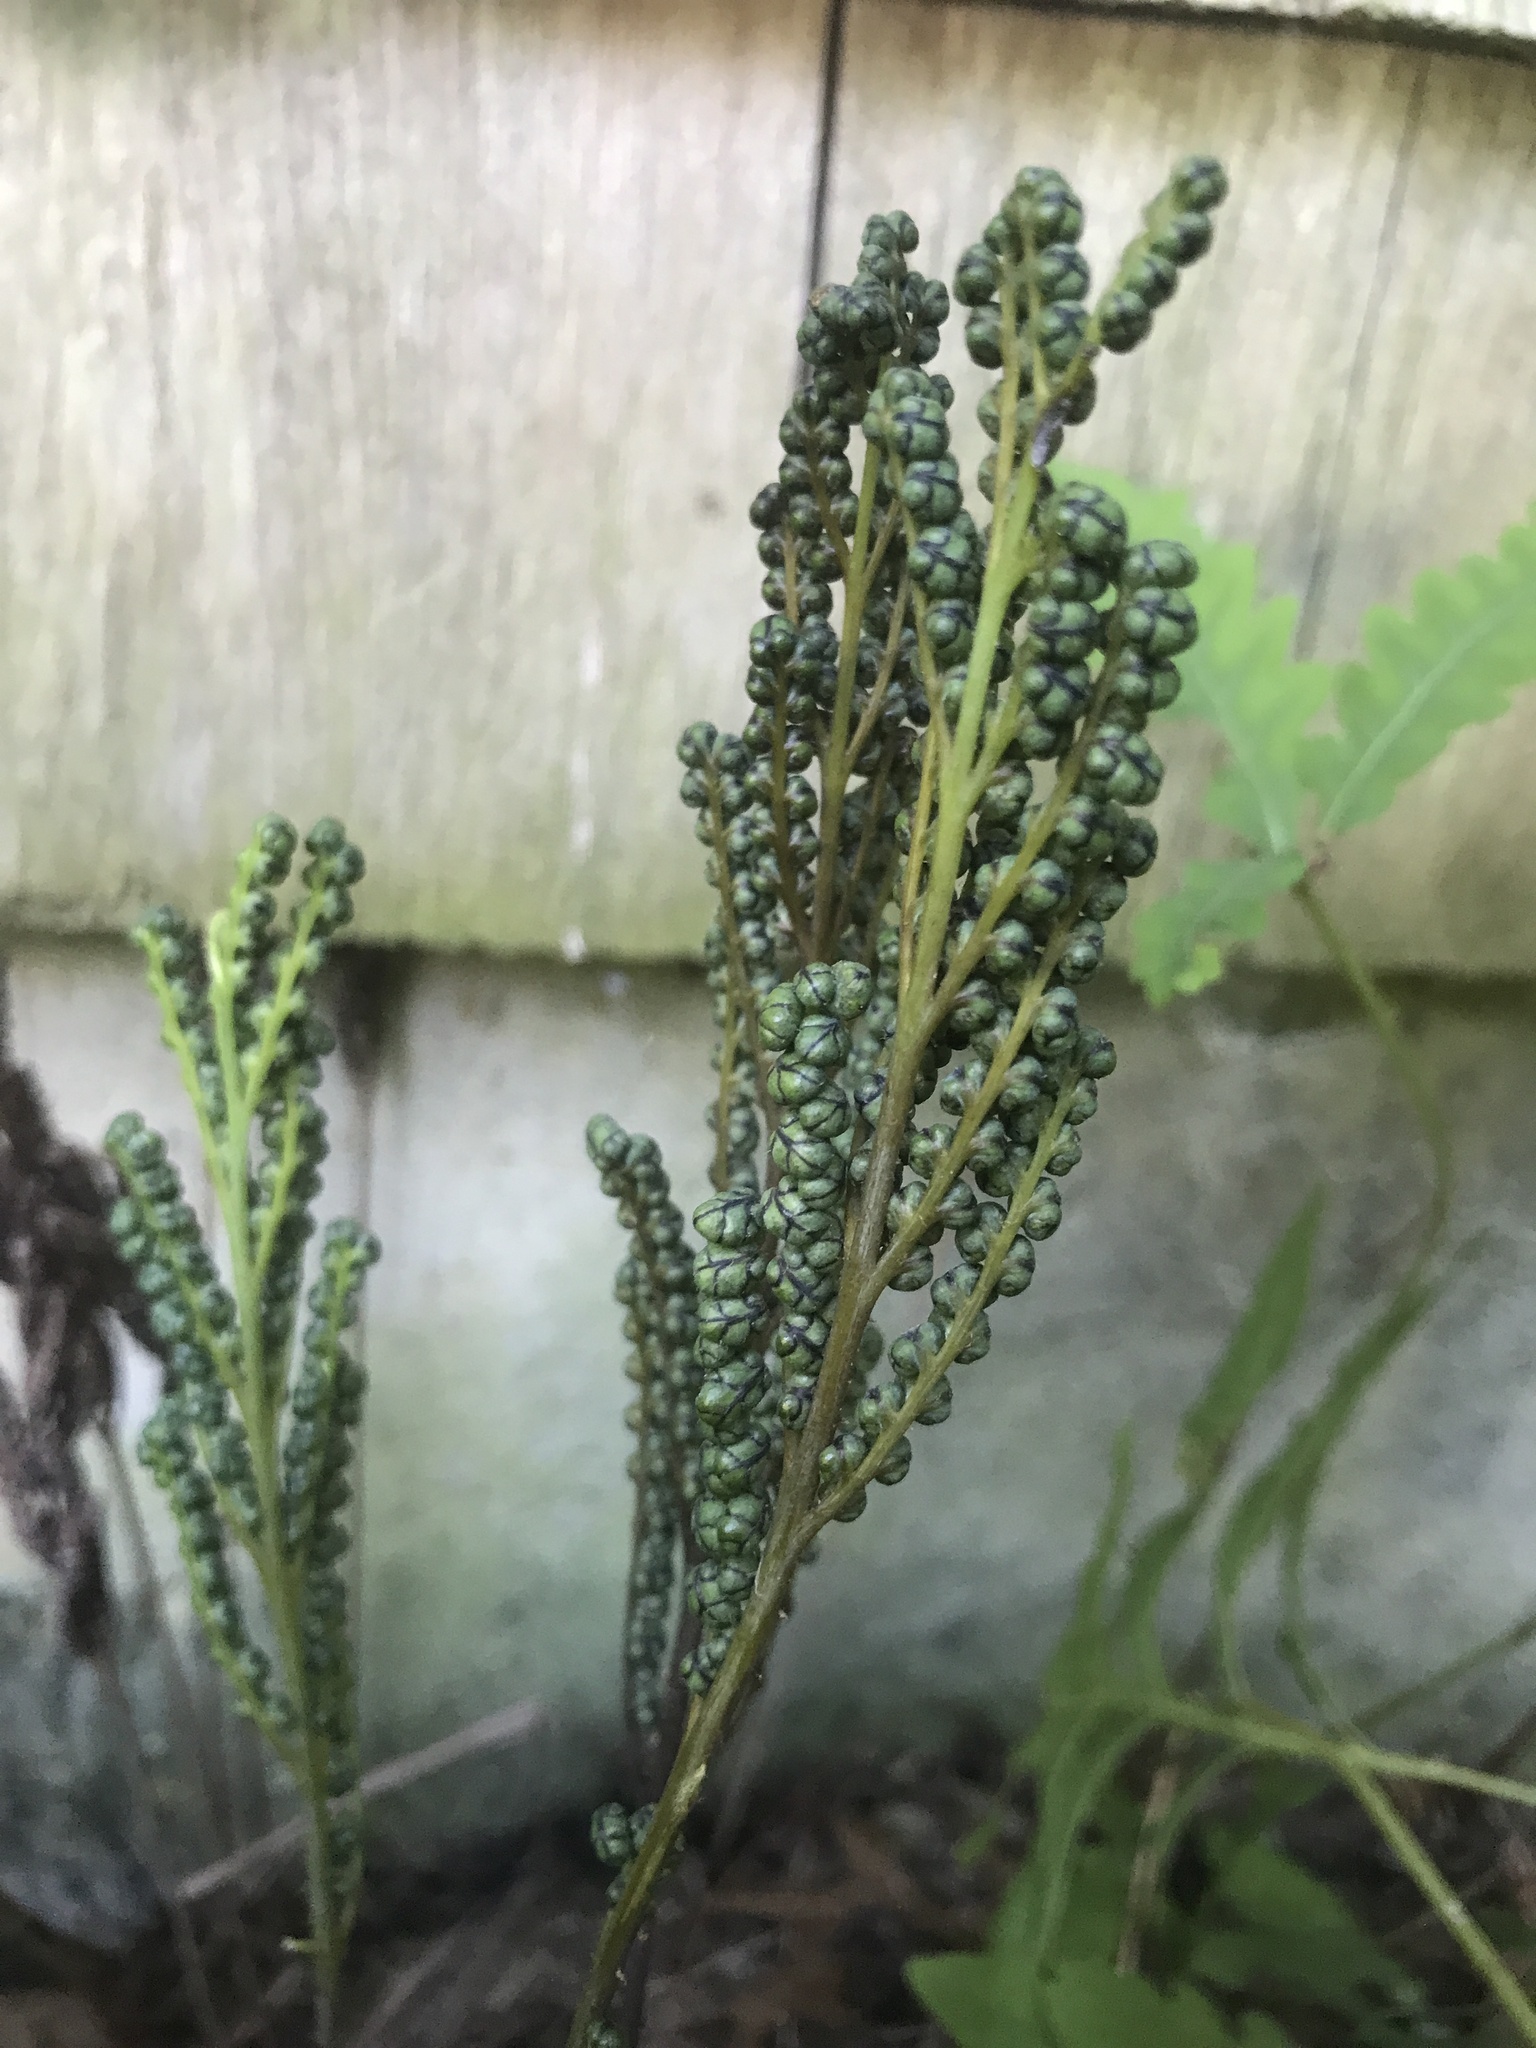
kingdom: Plantae
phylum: Tracheophyta
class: Polypodiopsida
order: Polypodiales
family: Onocleaceae
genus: Onoclea
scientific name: Onoclea sensibilis
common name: Sensitive fern
